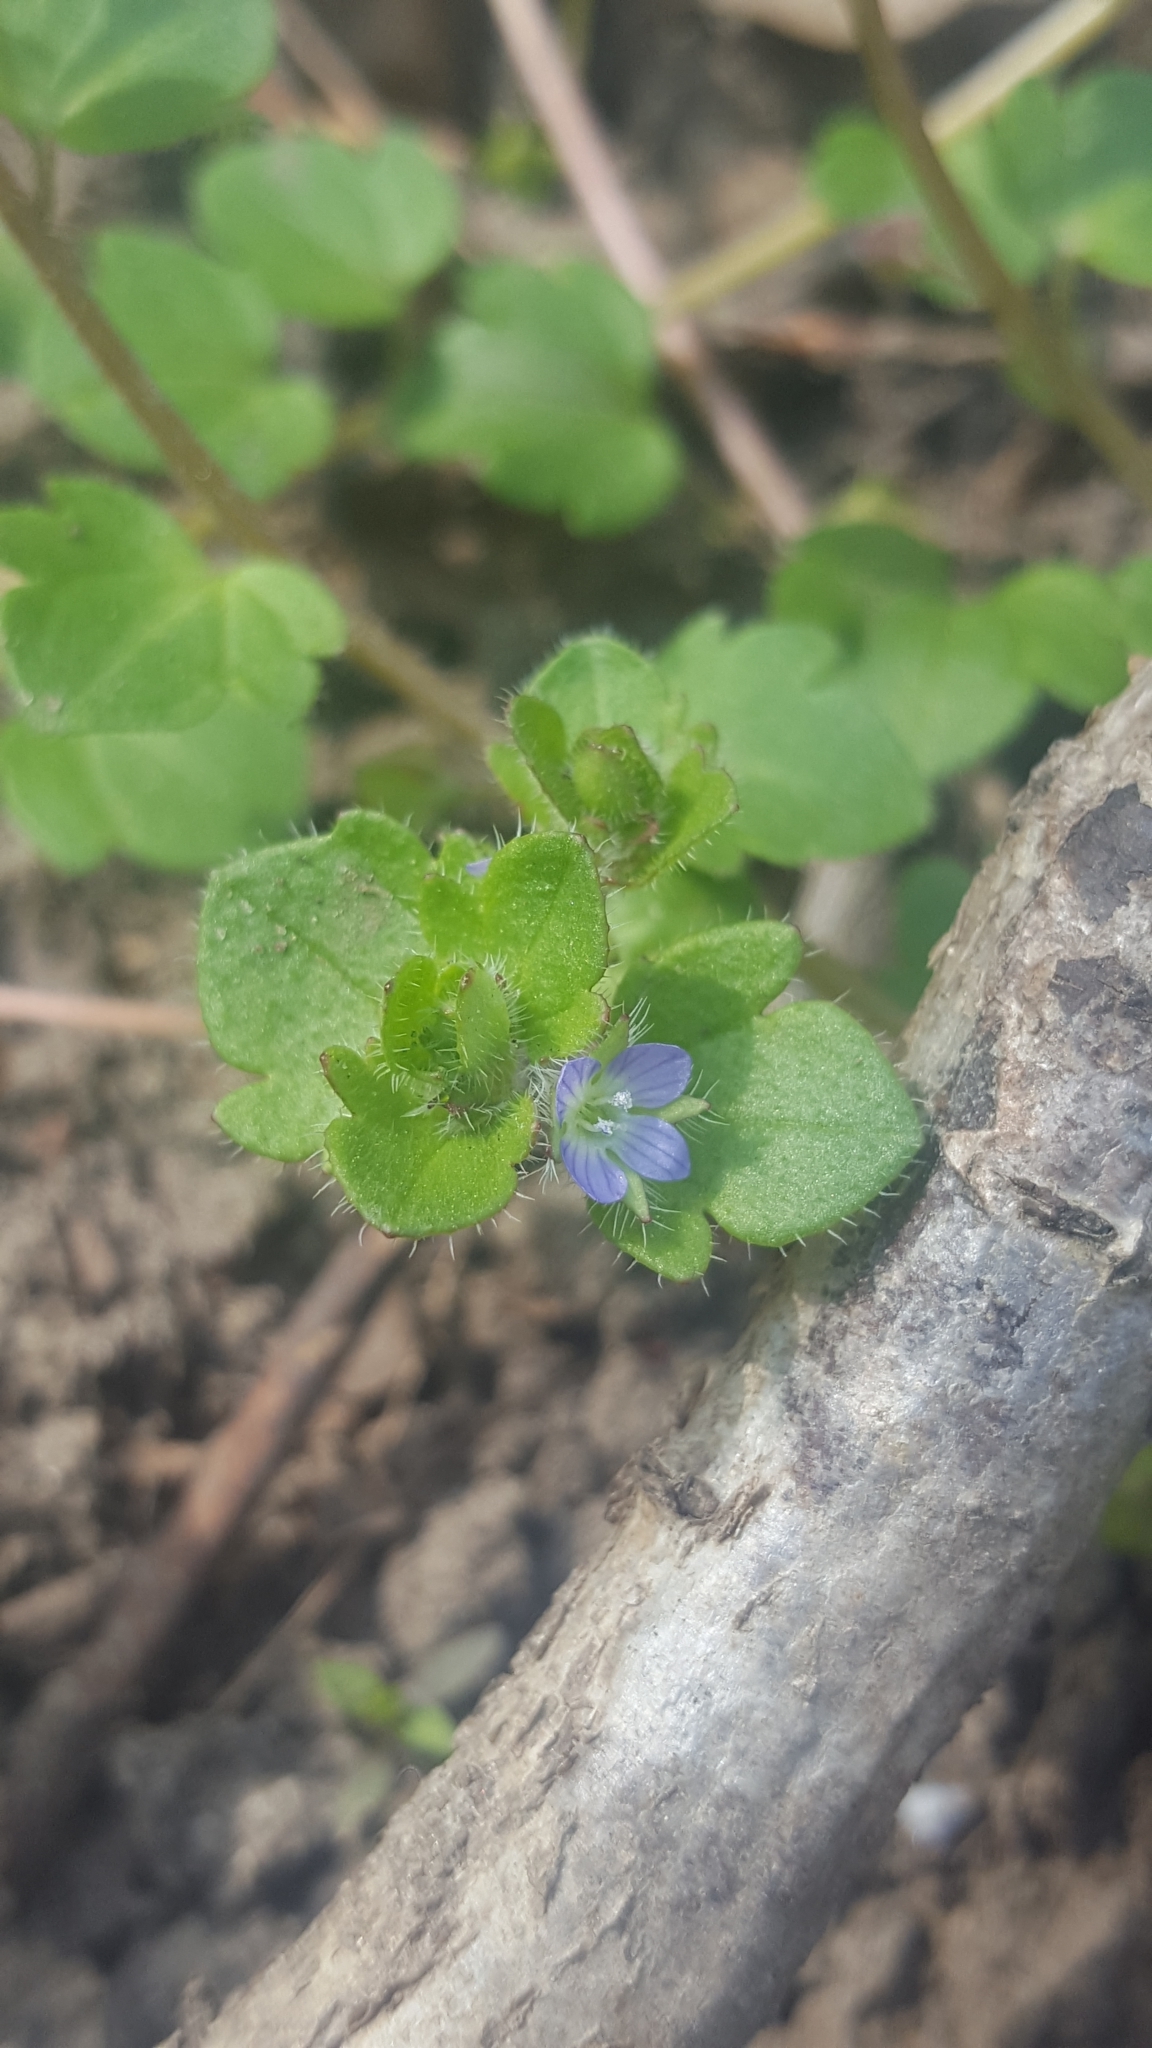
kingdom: Plantae
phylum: Tracheophyta
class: Magnoliopsida
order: Lamiales
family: Plantaginaceae
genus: Veronica
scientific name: Veronica hederifolia
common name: Ivy-leaved speedwell
